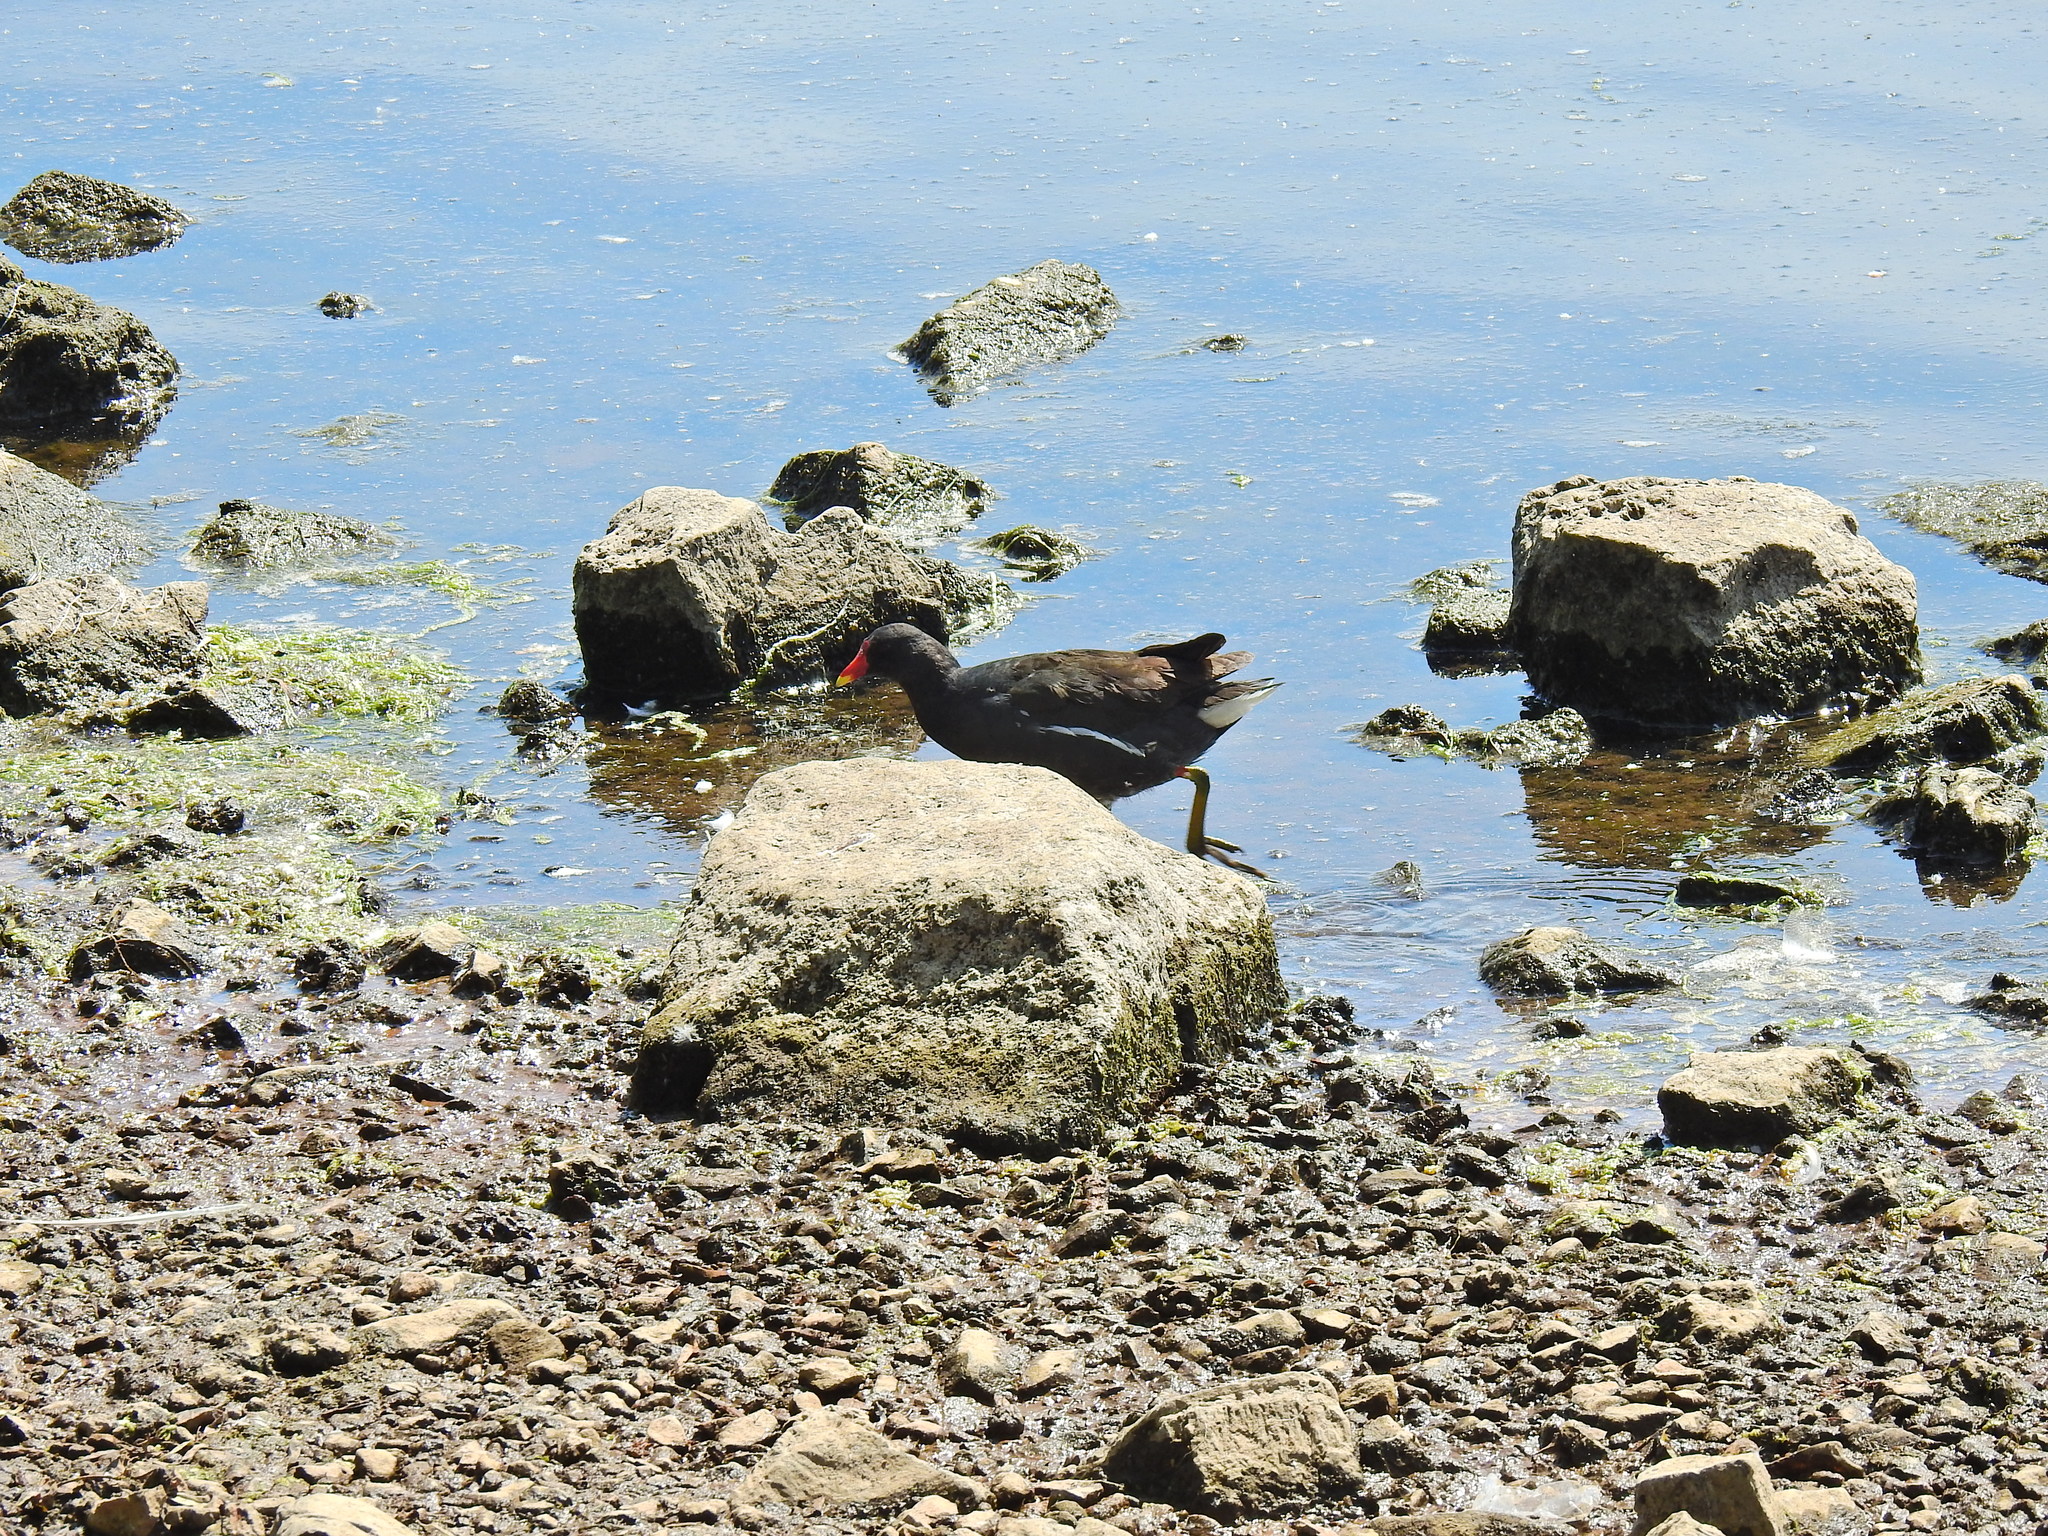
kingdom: Animalia
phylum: Chordata
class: Aves
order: Gruiformes
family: Rallidae
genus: Gallinula
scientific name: Gallinula chloropus
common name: Common moorhen
